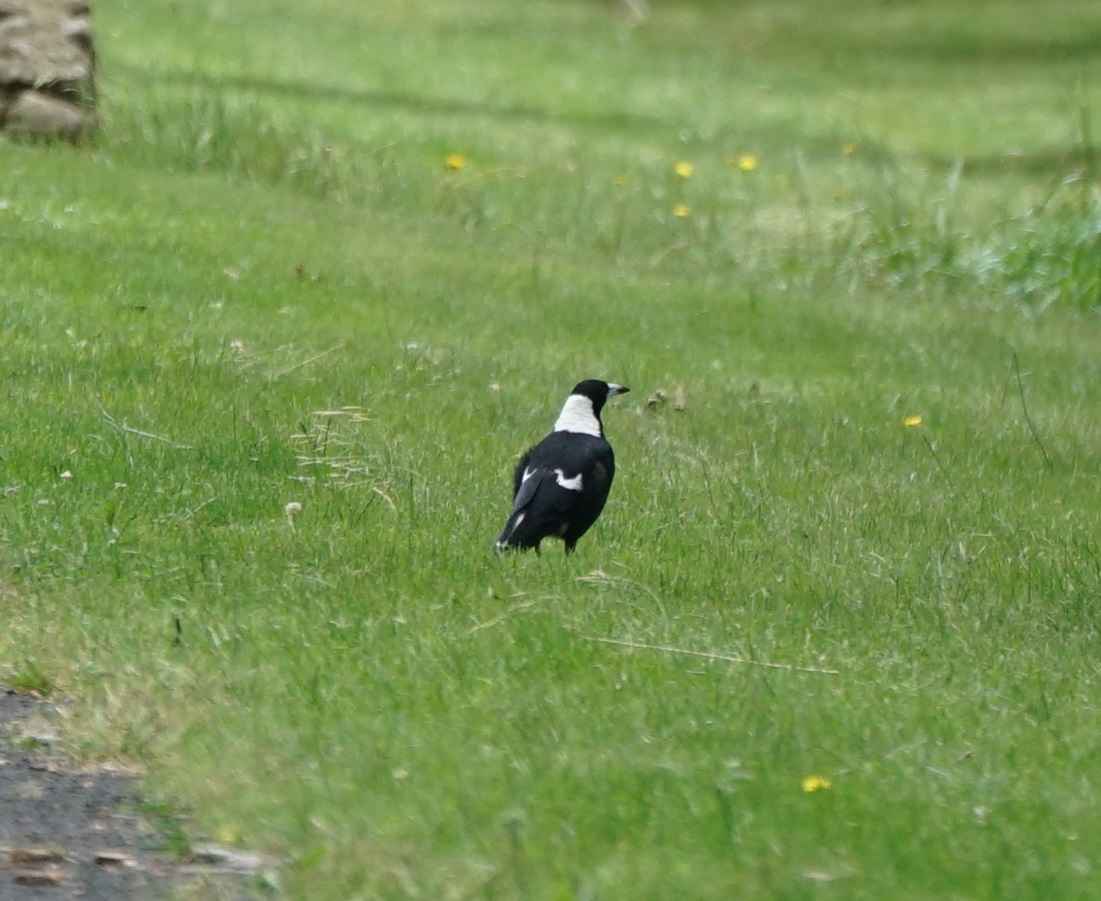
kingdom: Animalia
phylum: Chordata
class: Aves
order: Passeriformes
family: Cracticidae
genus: Gymnorhina
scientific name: Gymnorhina tibicen
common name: Australian magpie
